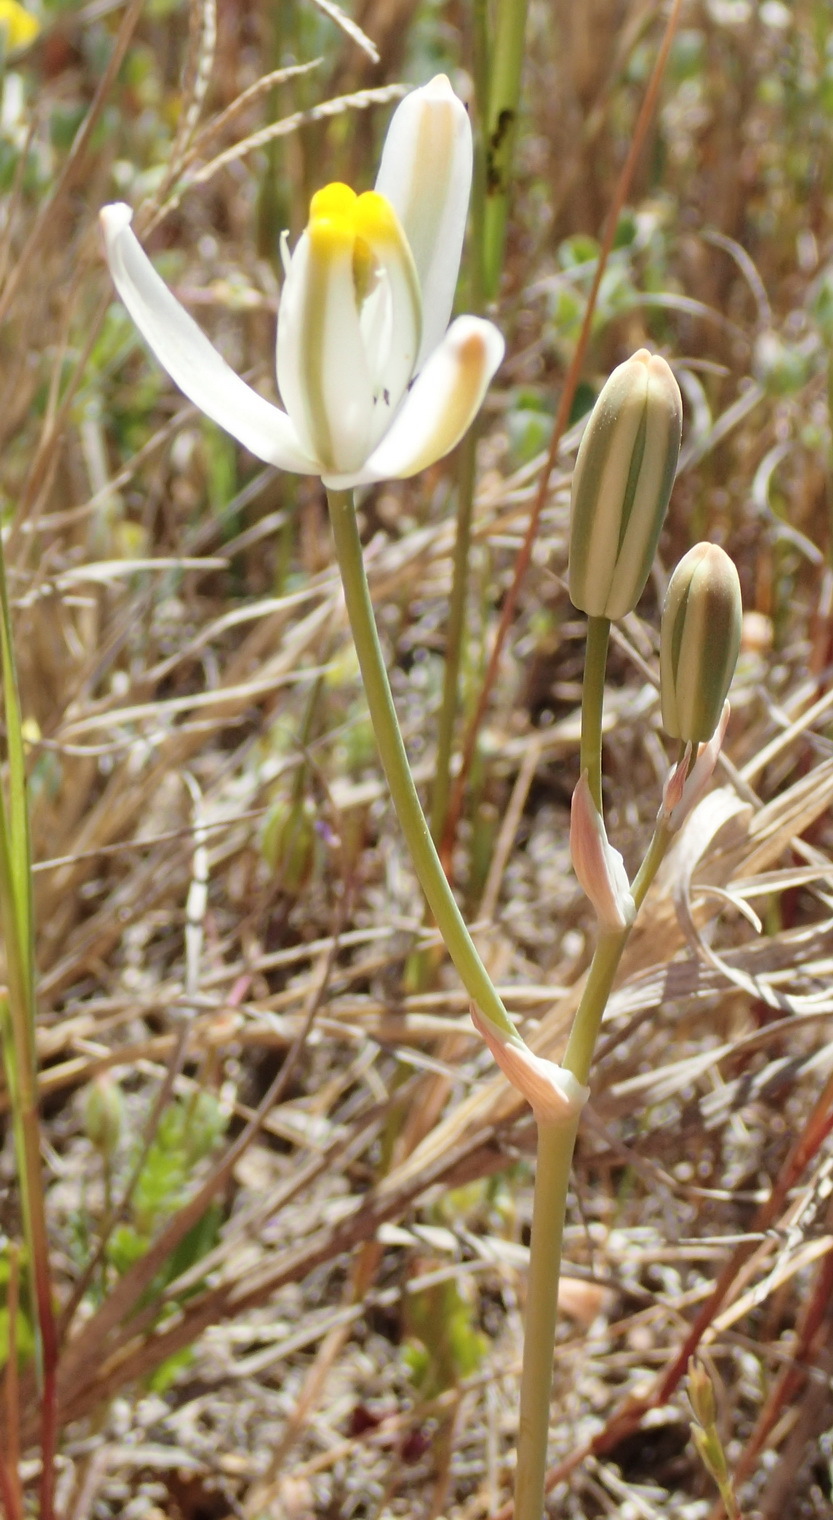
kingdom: Plantae
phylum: Tracheophyta
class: Liliopsida
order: Asparagales
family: Asparagaceae
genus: Albuca
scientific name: Albuca longipes
